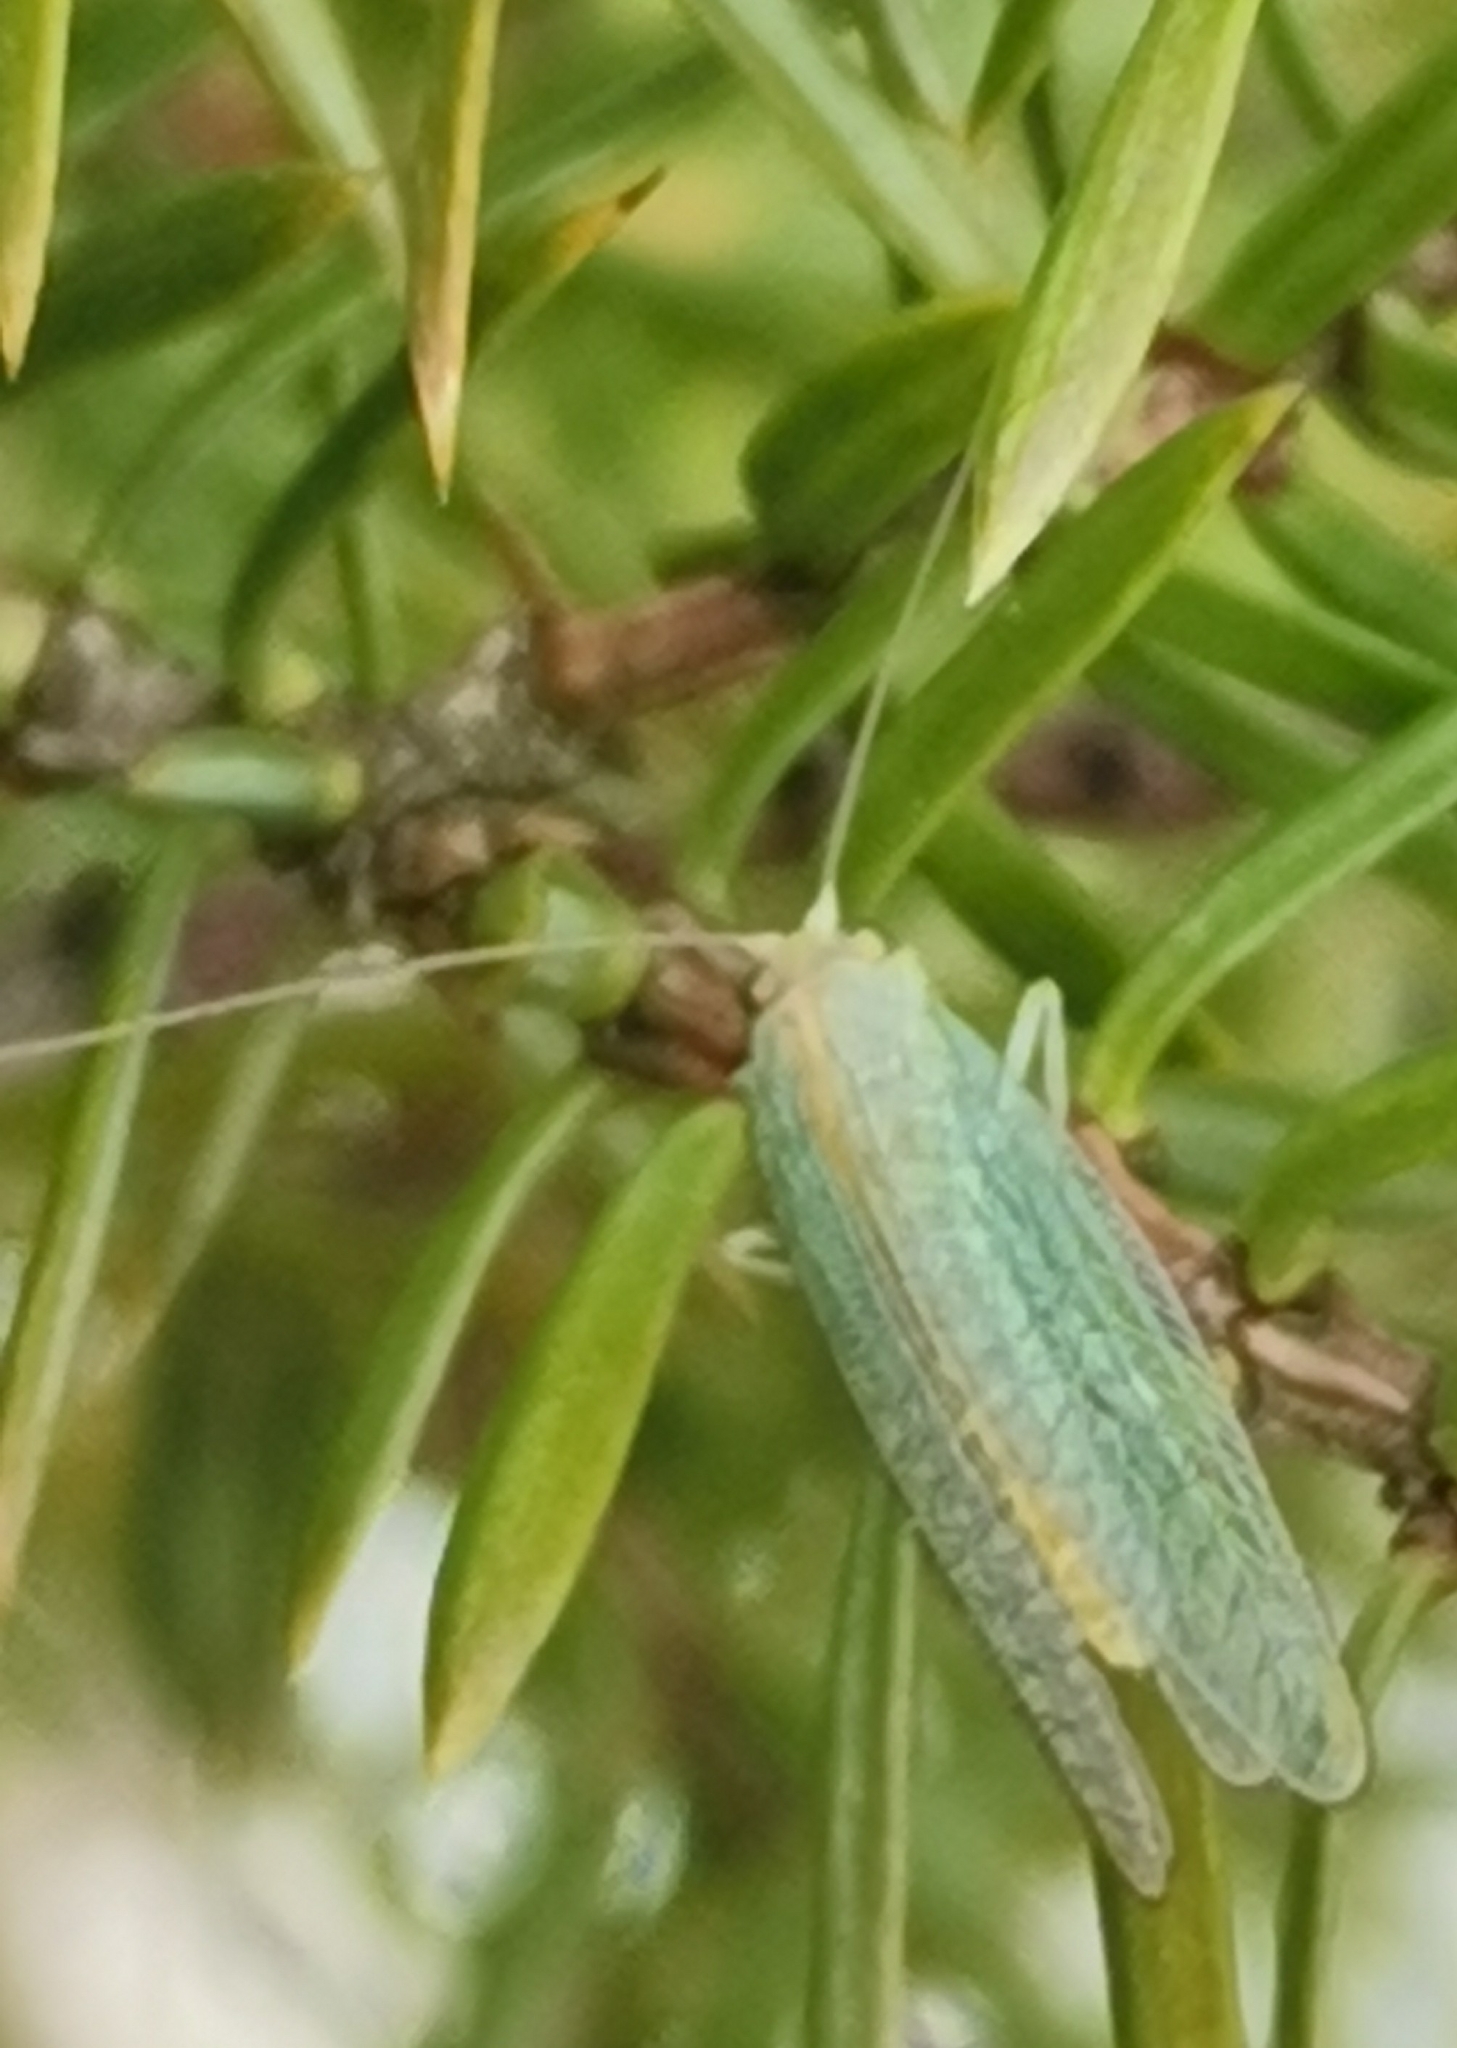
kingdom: Animalia
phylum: Arthropoda
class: Insecta
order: Neuroptera
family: Chrysopidae
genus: Chrysoperla
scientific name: Chrysoperla
